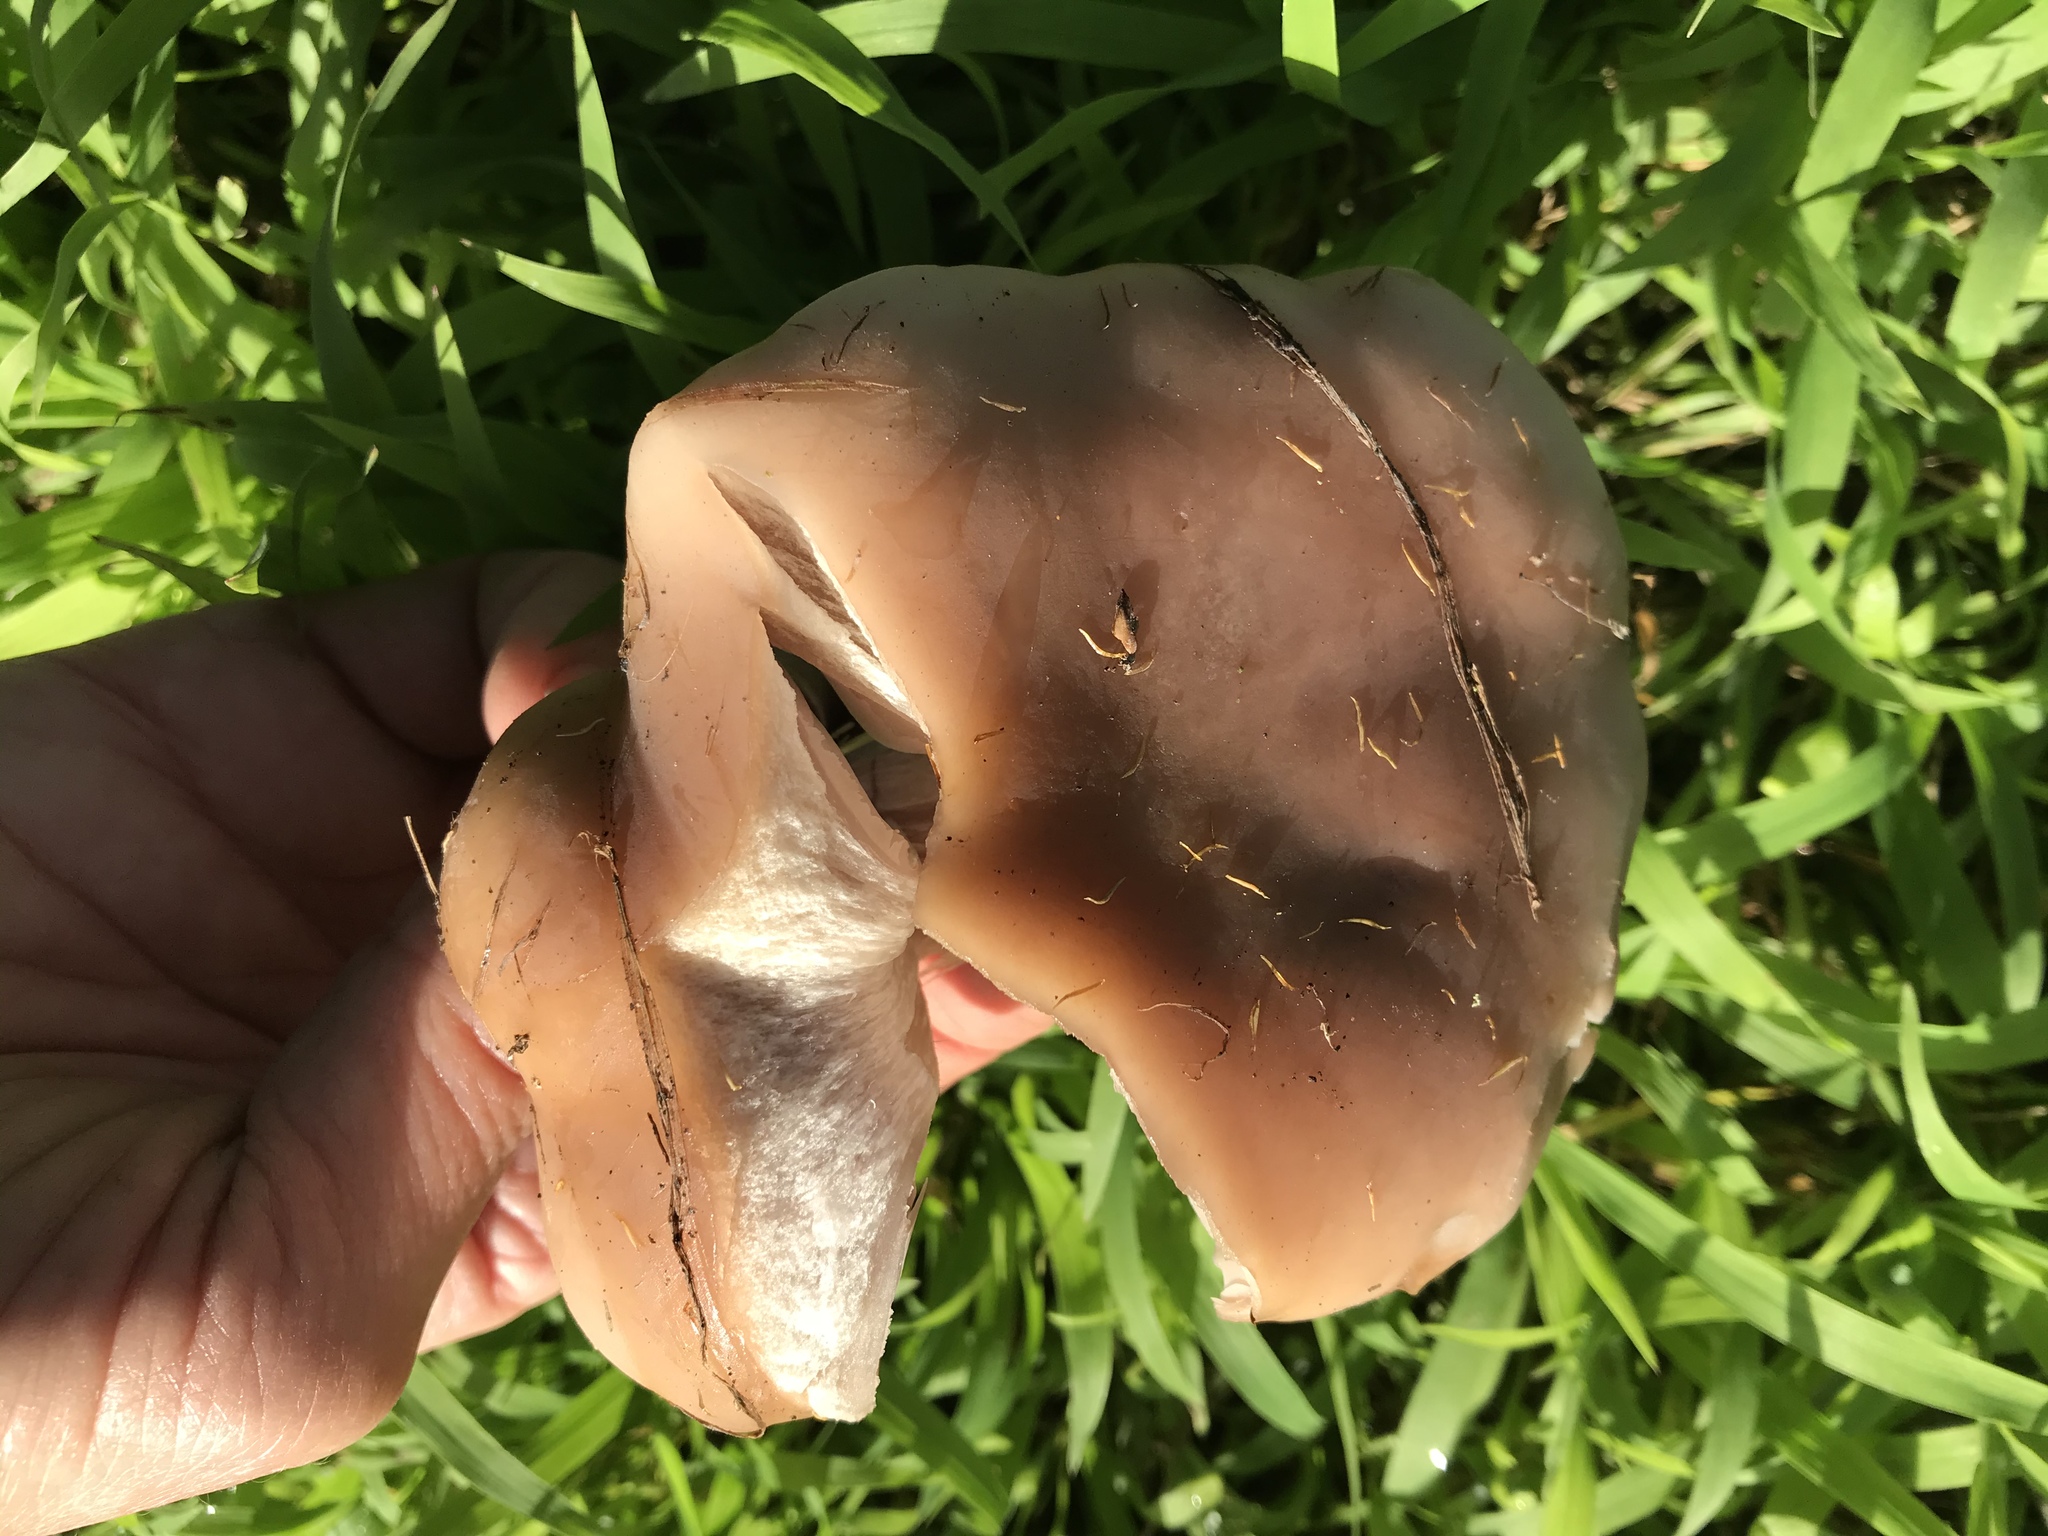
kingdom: Fungi
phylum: Basidiomycota
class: Agaricomycetes
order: Agaricales
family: Tricholomataceae
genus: Collybia
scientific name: Collybia
